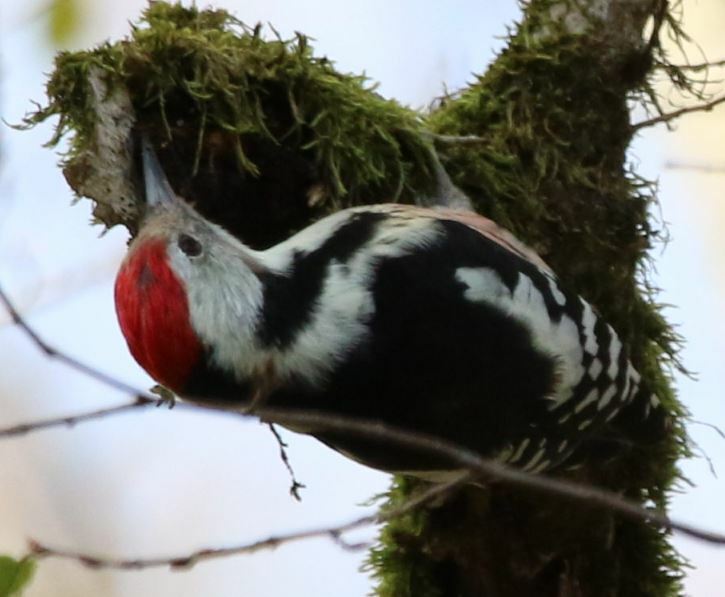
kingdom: Animalia
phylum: Chordata
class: Aves
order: Piciformes
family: Picidae
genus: Dendrocoptes
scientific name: Dendrocoptes medius
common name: Middle spotted woodpecker
